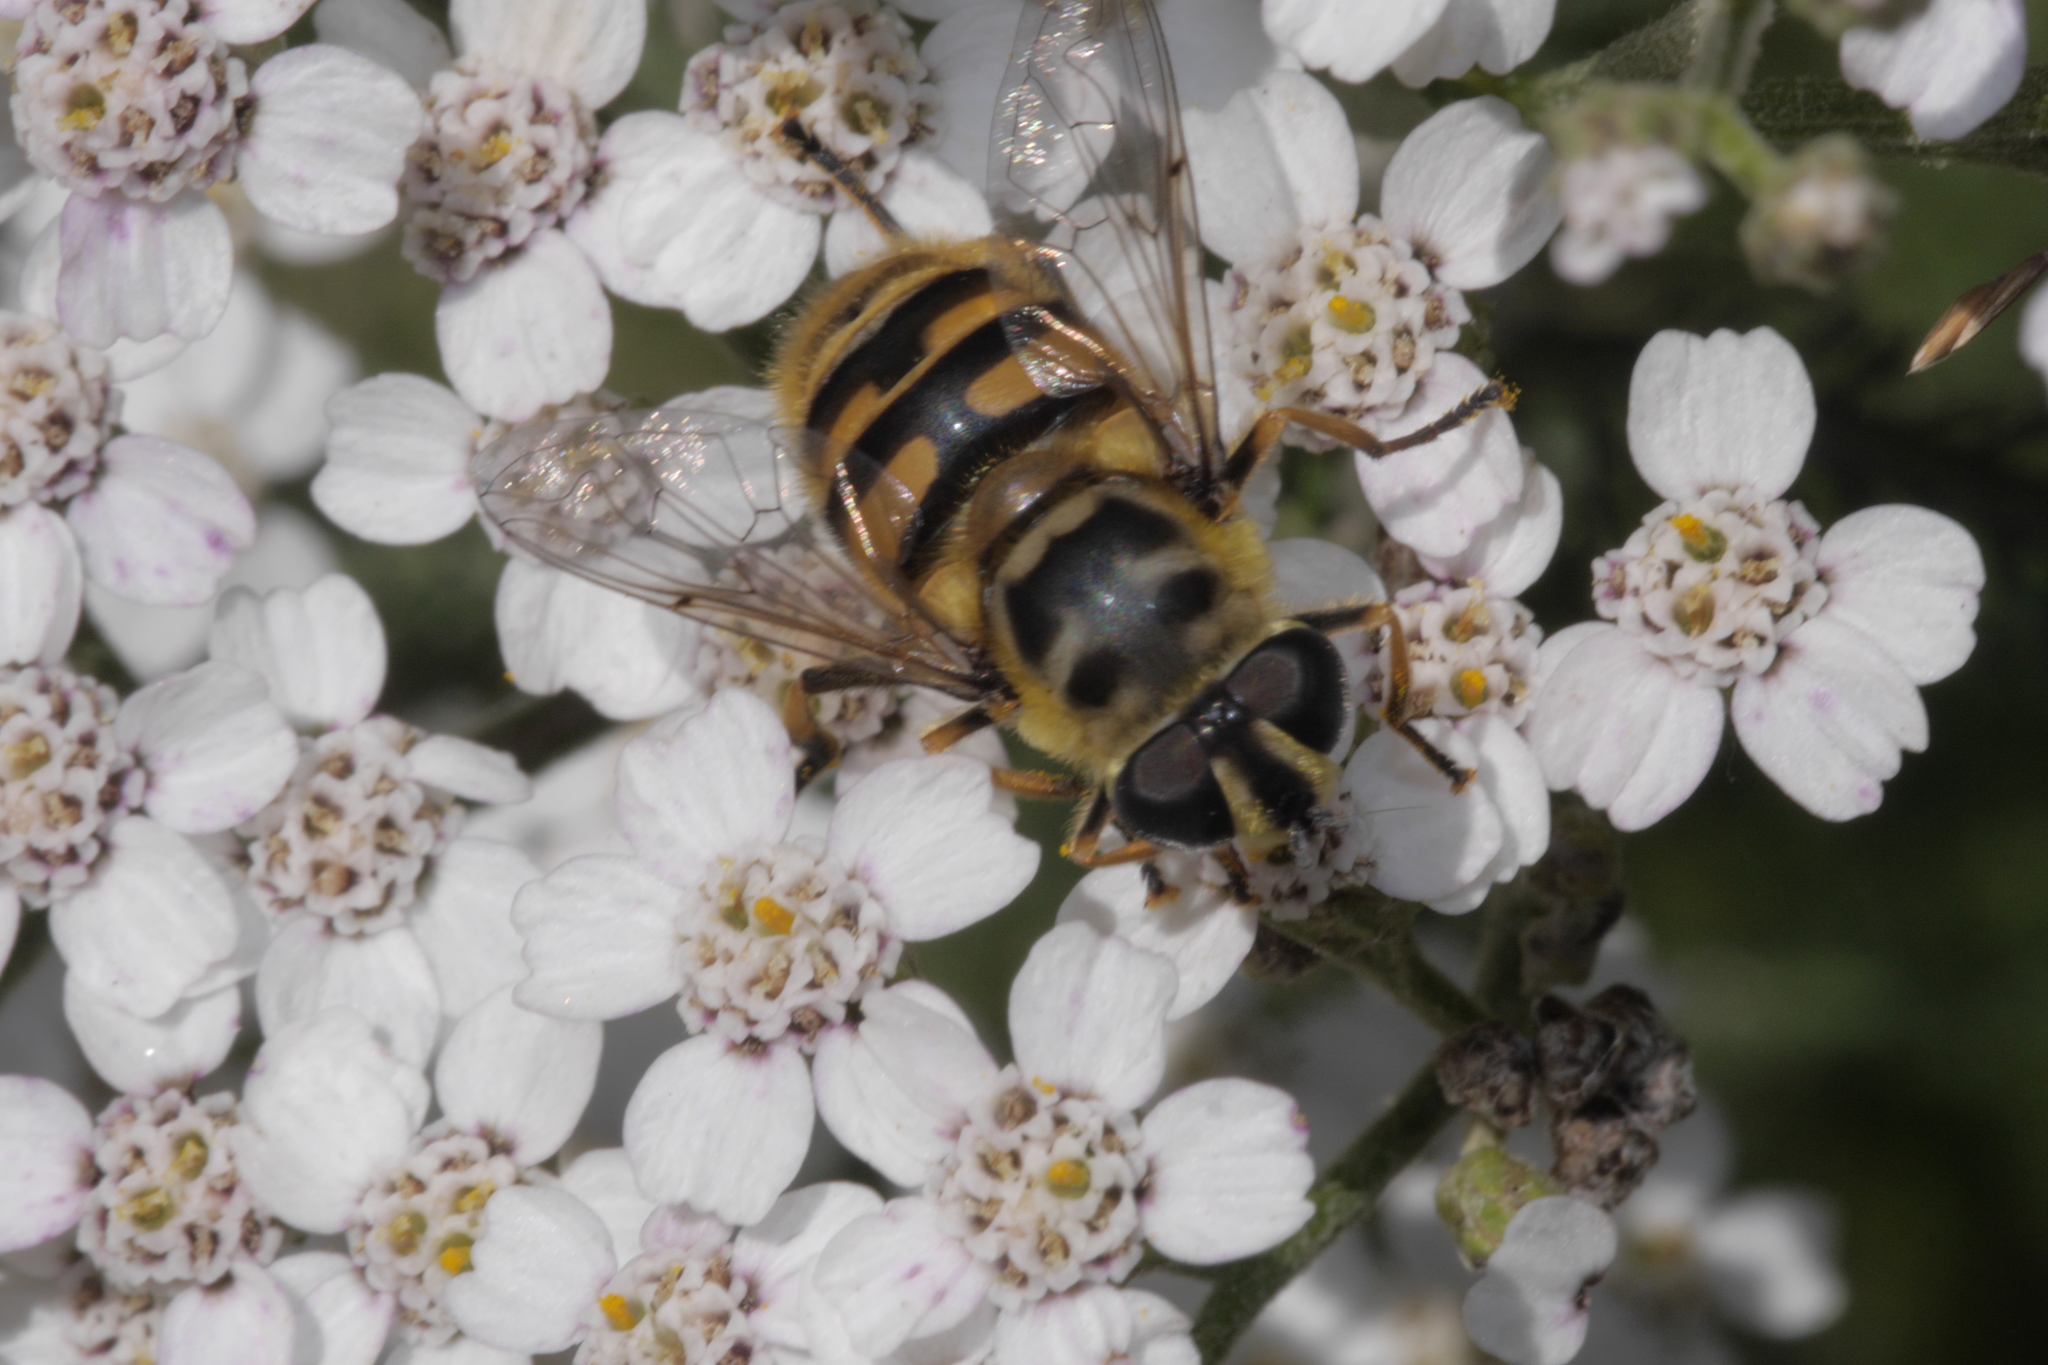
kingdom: Animalia
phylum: Arthropoda
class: Insecta
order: Diptera
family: Syrphidae
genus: Myathropa
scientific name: Myathropa florea
